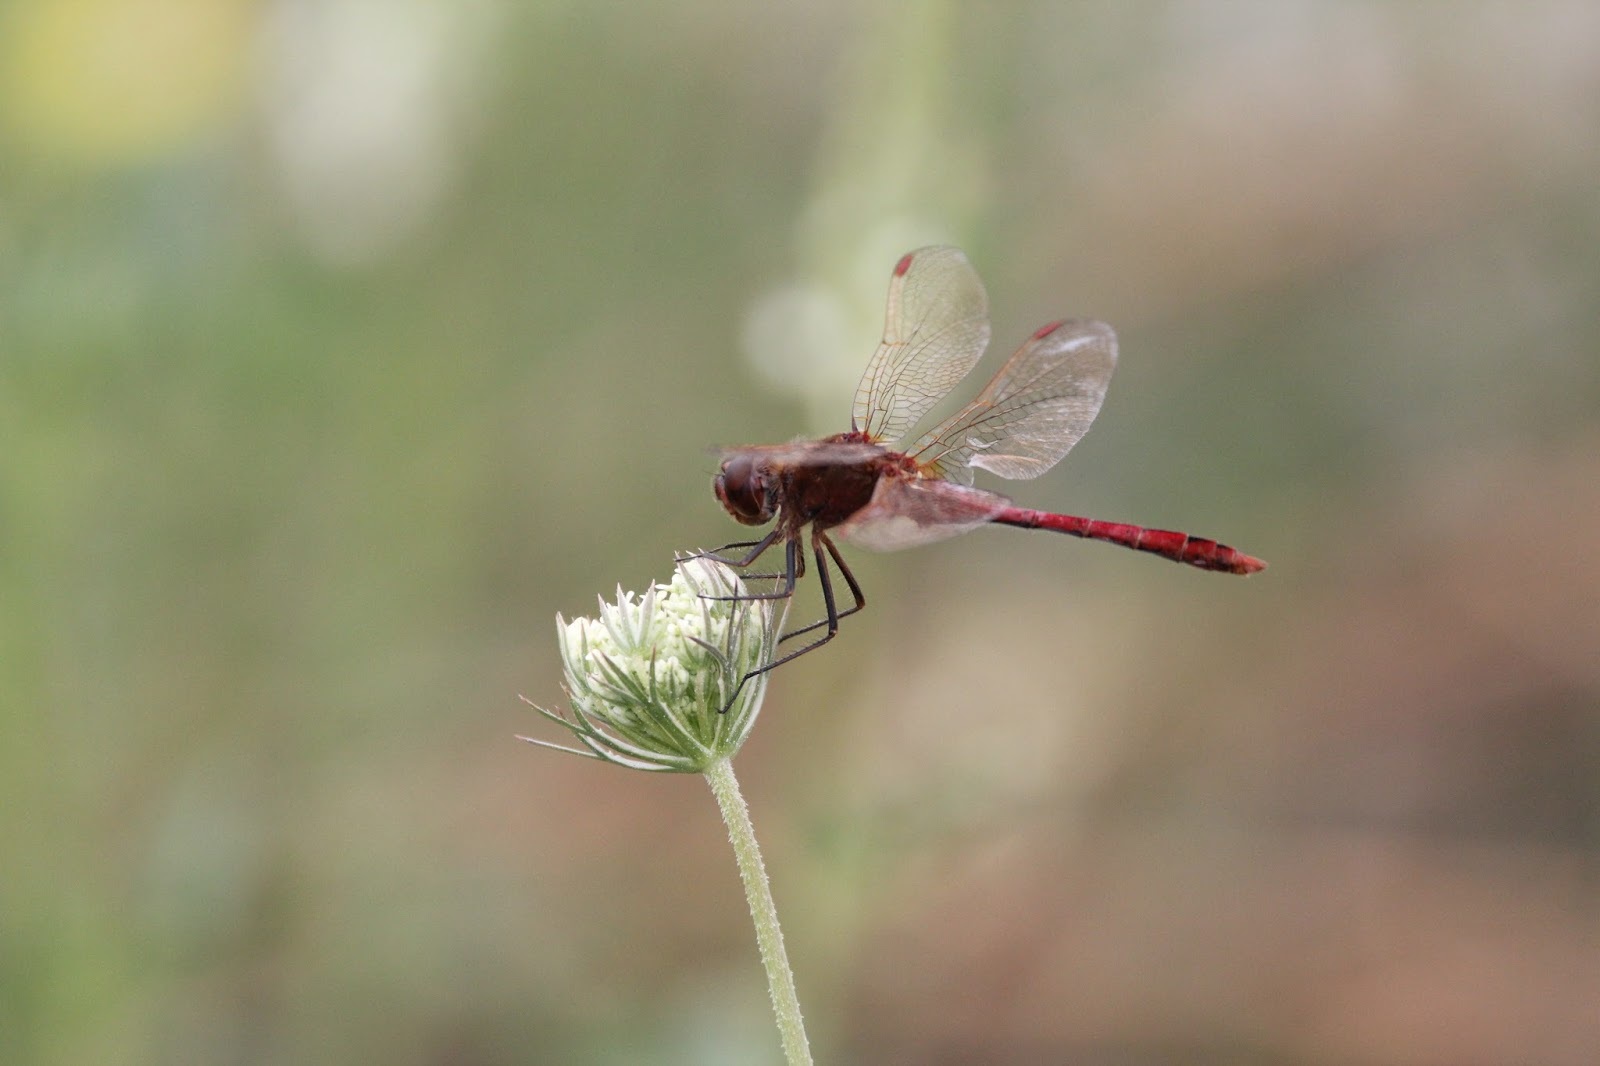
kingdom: Animalia
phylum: Arthropoda
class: Insecta
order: Odonata
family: Libellulidae
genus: Sympetrum
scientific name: Sympetrum costiferum
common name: Saffron-winged meadowhawk
